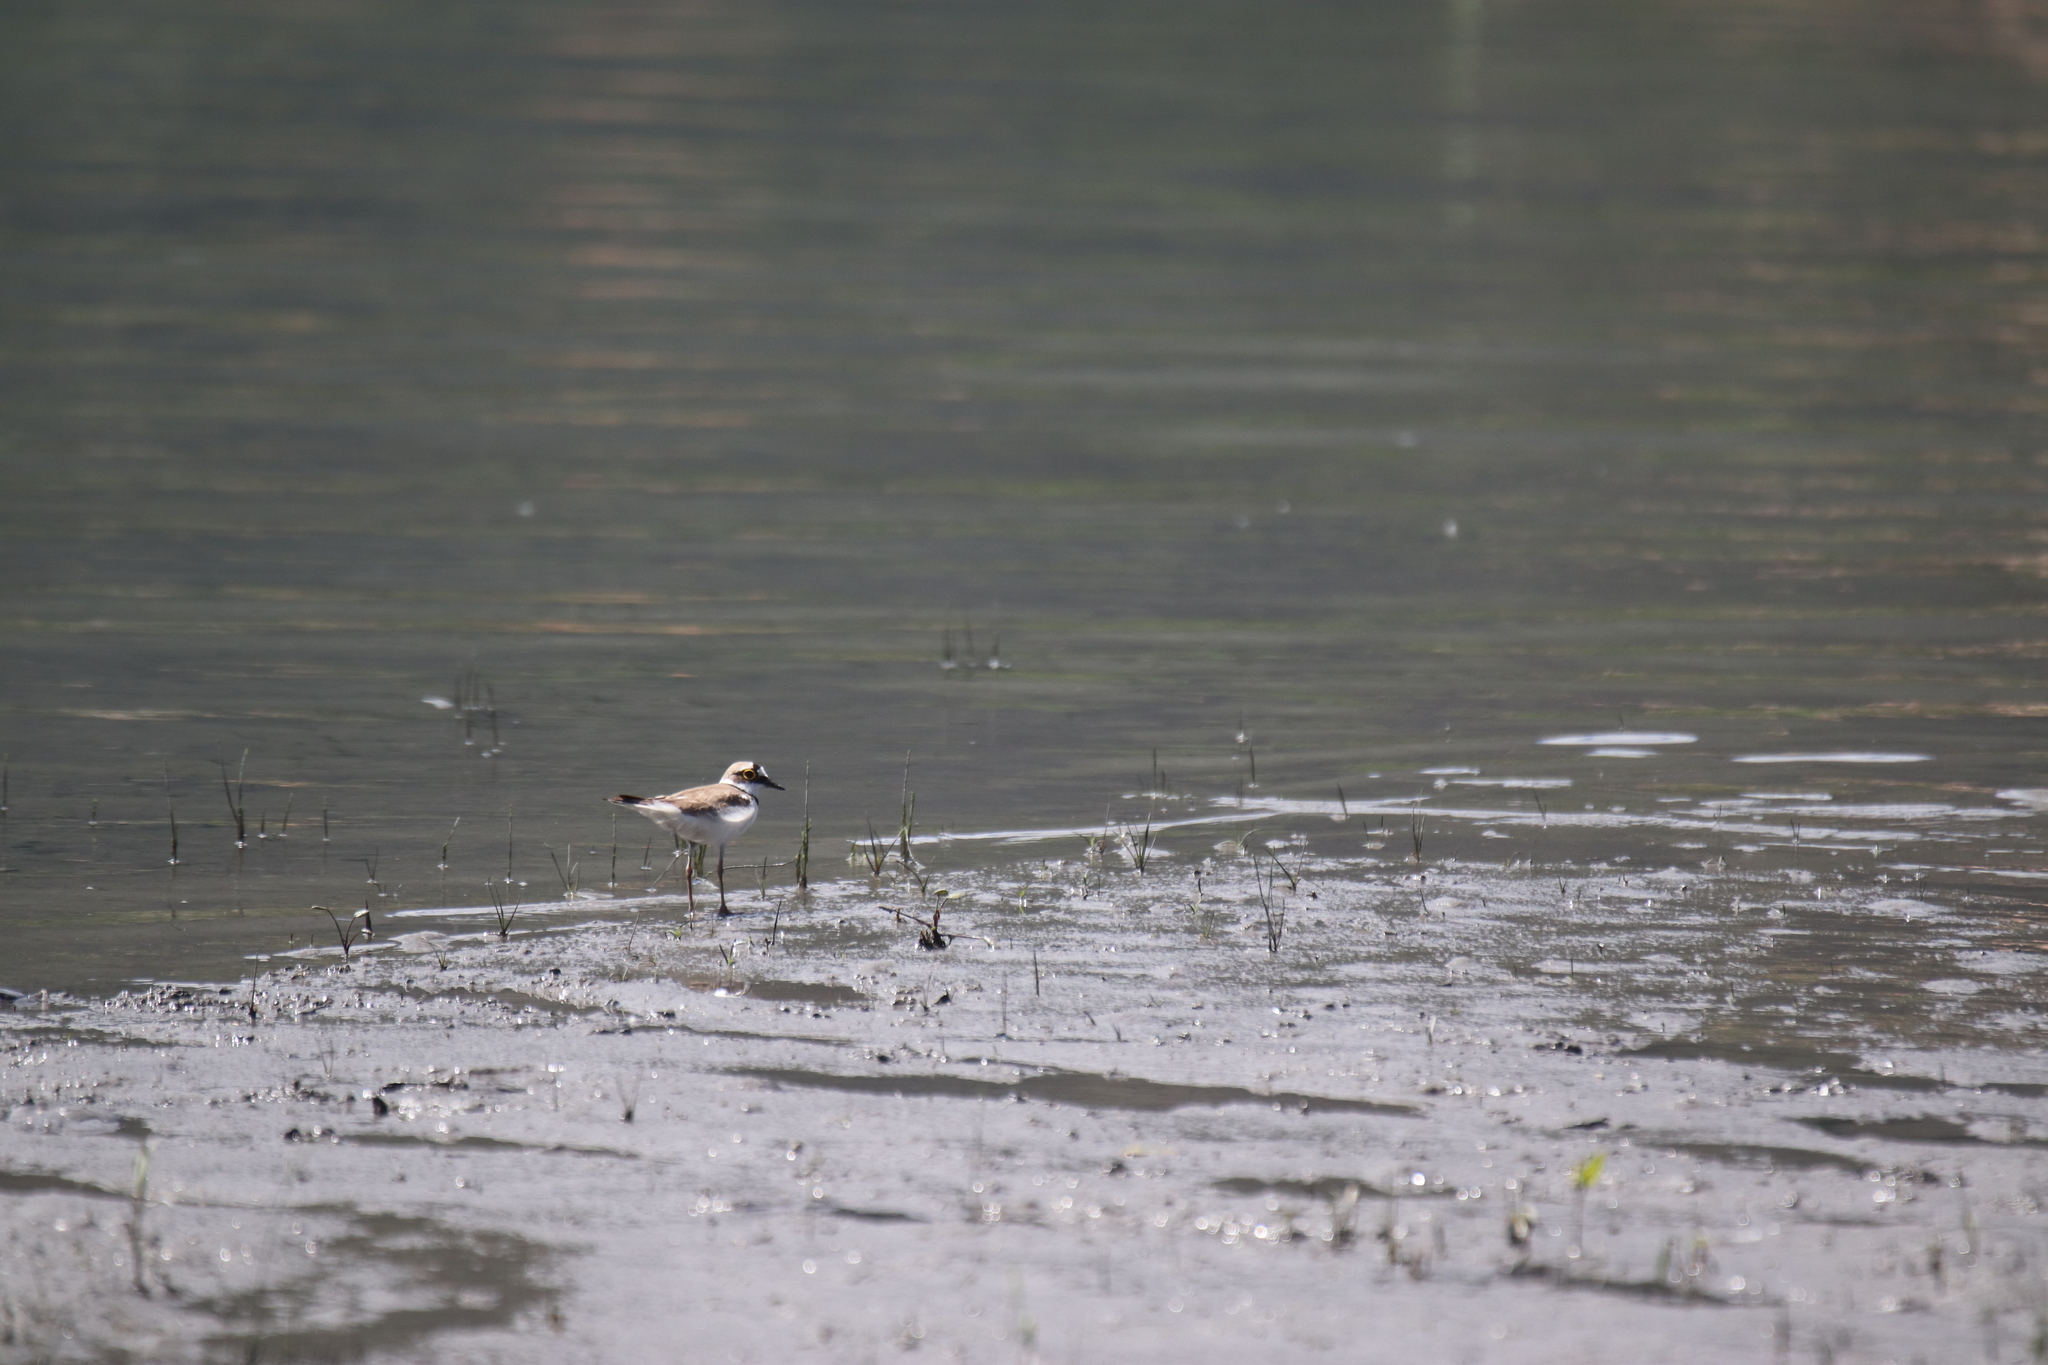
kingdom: Animalia
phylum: Chordata
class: Aves
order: Charadriiformes
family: Charadriidae
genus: Charadrius
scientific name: Charadrius dubius
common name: Little ringed plover
